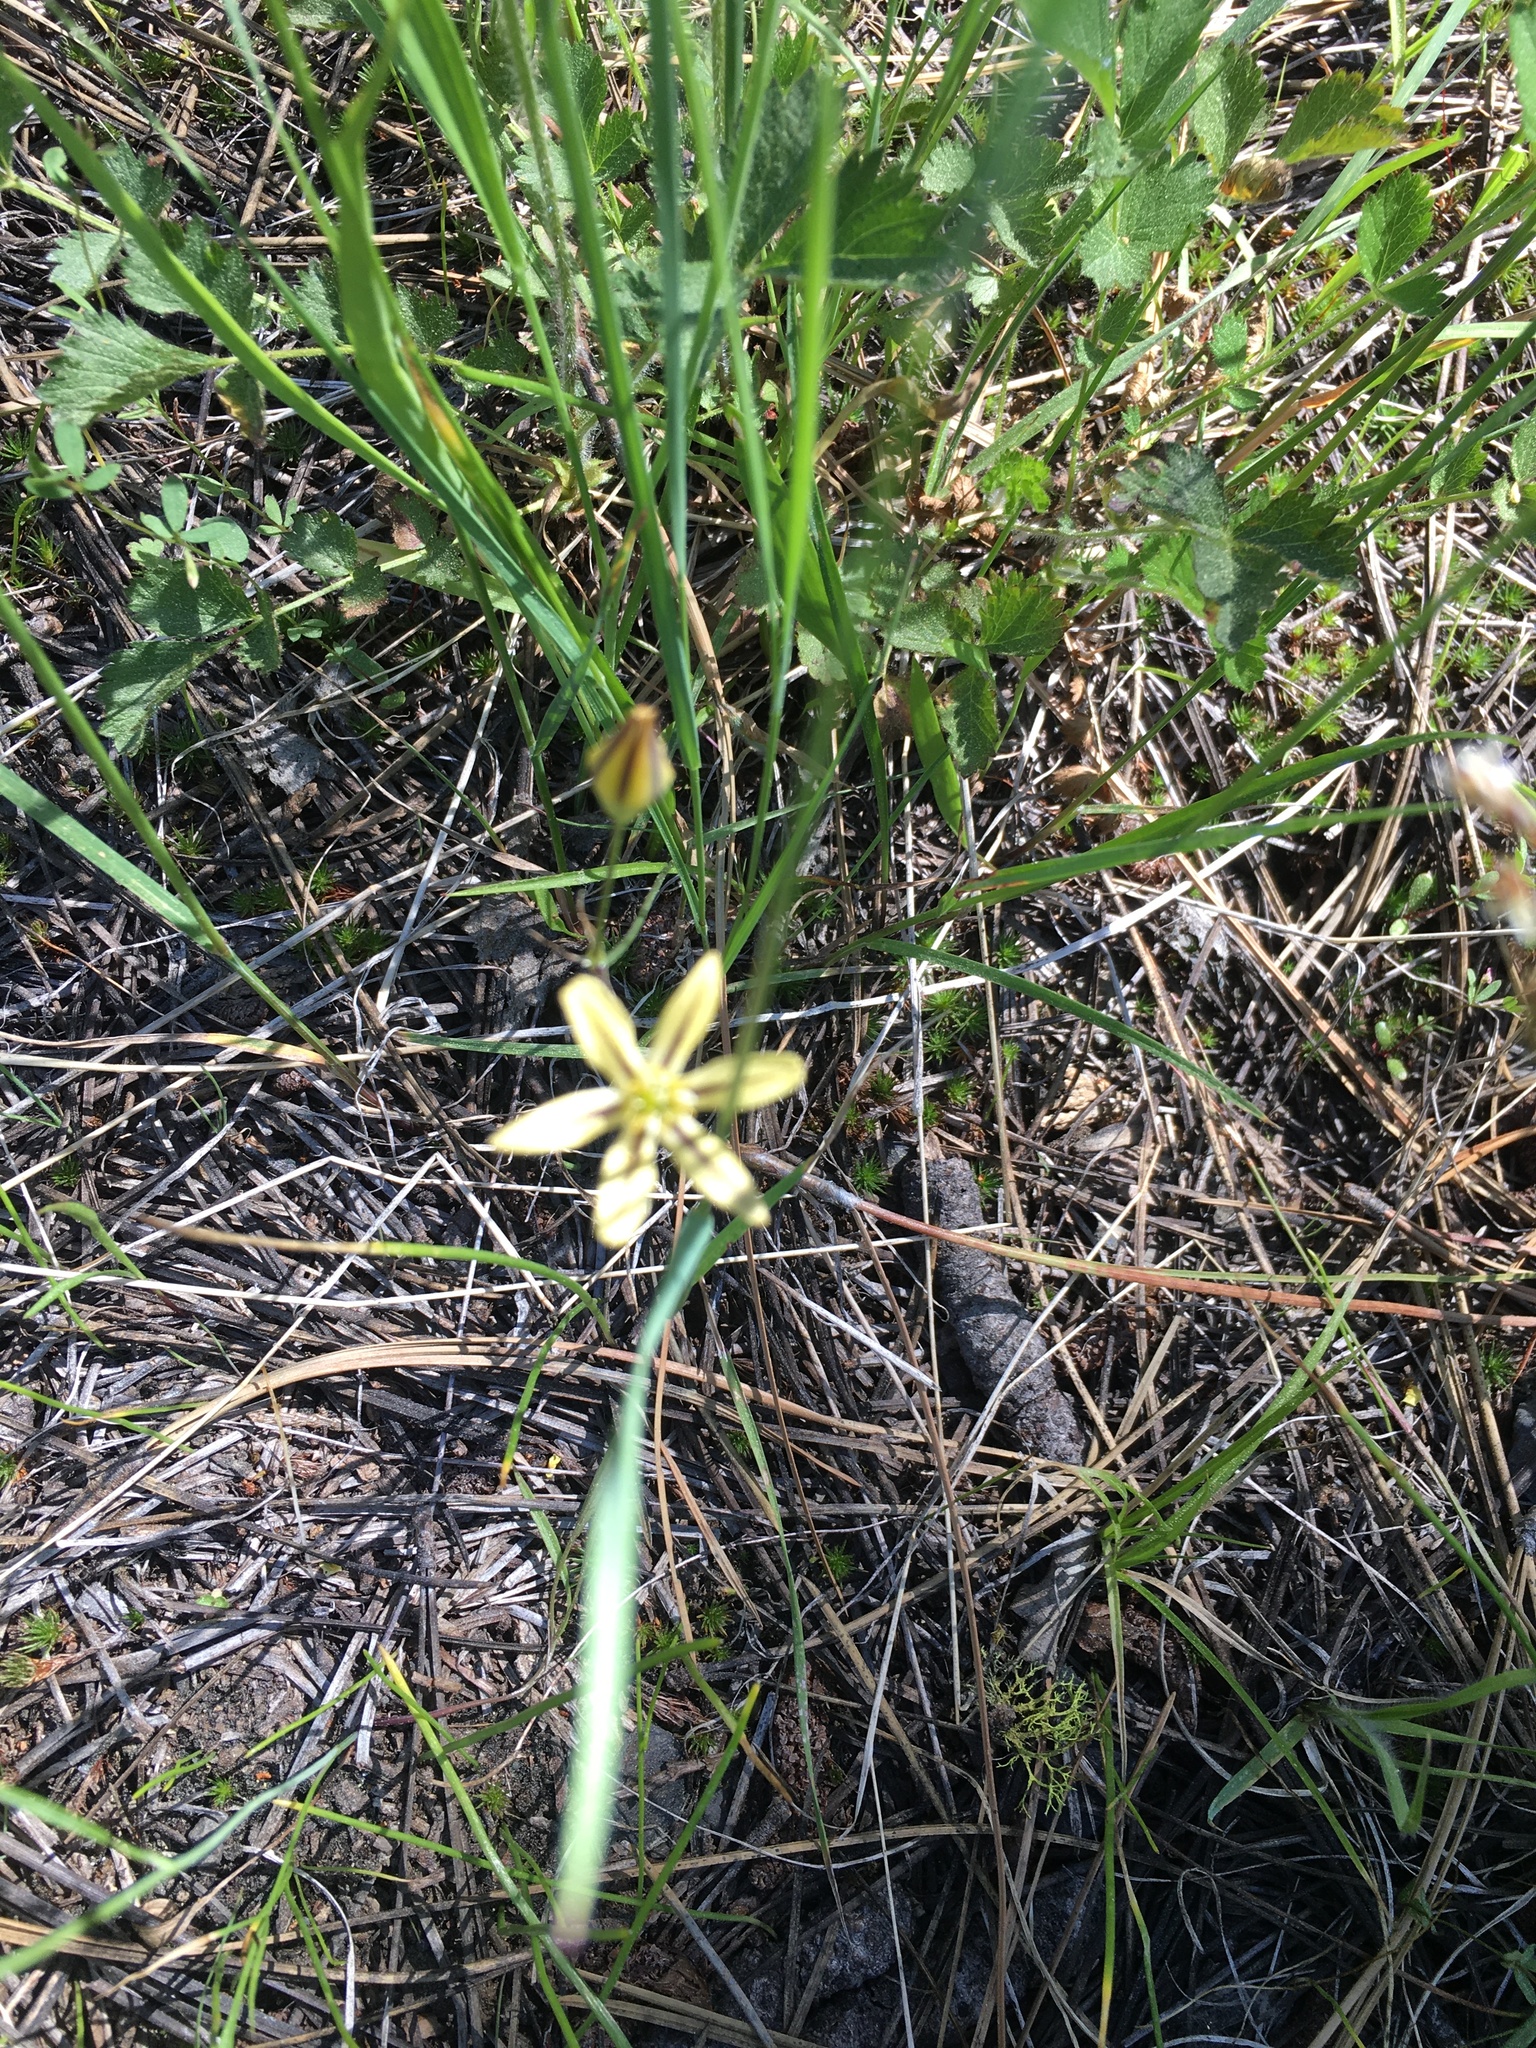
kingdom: Plantae
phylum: Tracheophyta
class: Liliopsida
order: Asparagales
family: Asparagaceae
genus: Triteleia
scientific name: Triteleia ixioides
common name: Yellow-brodiaea
